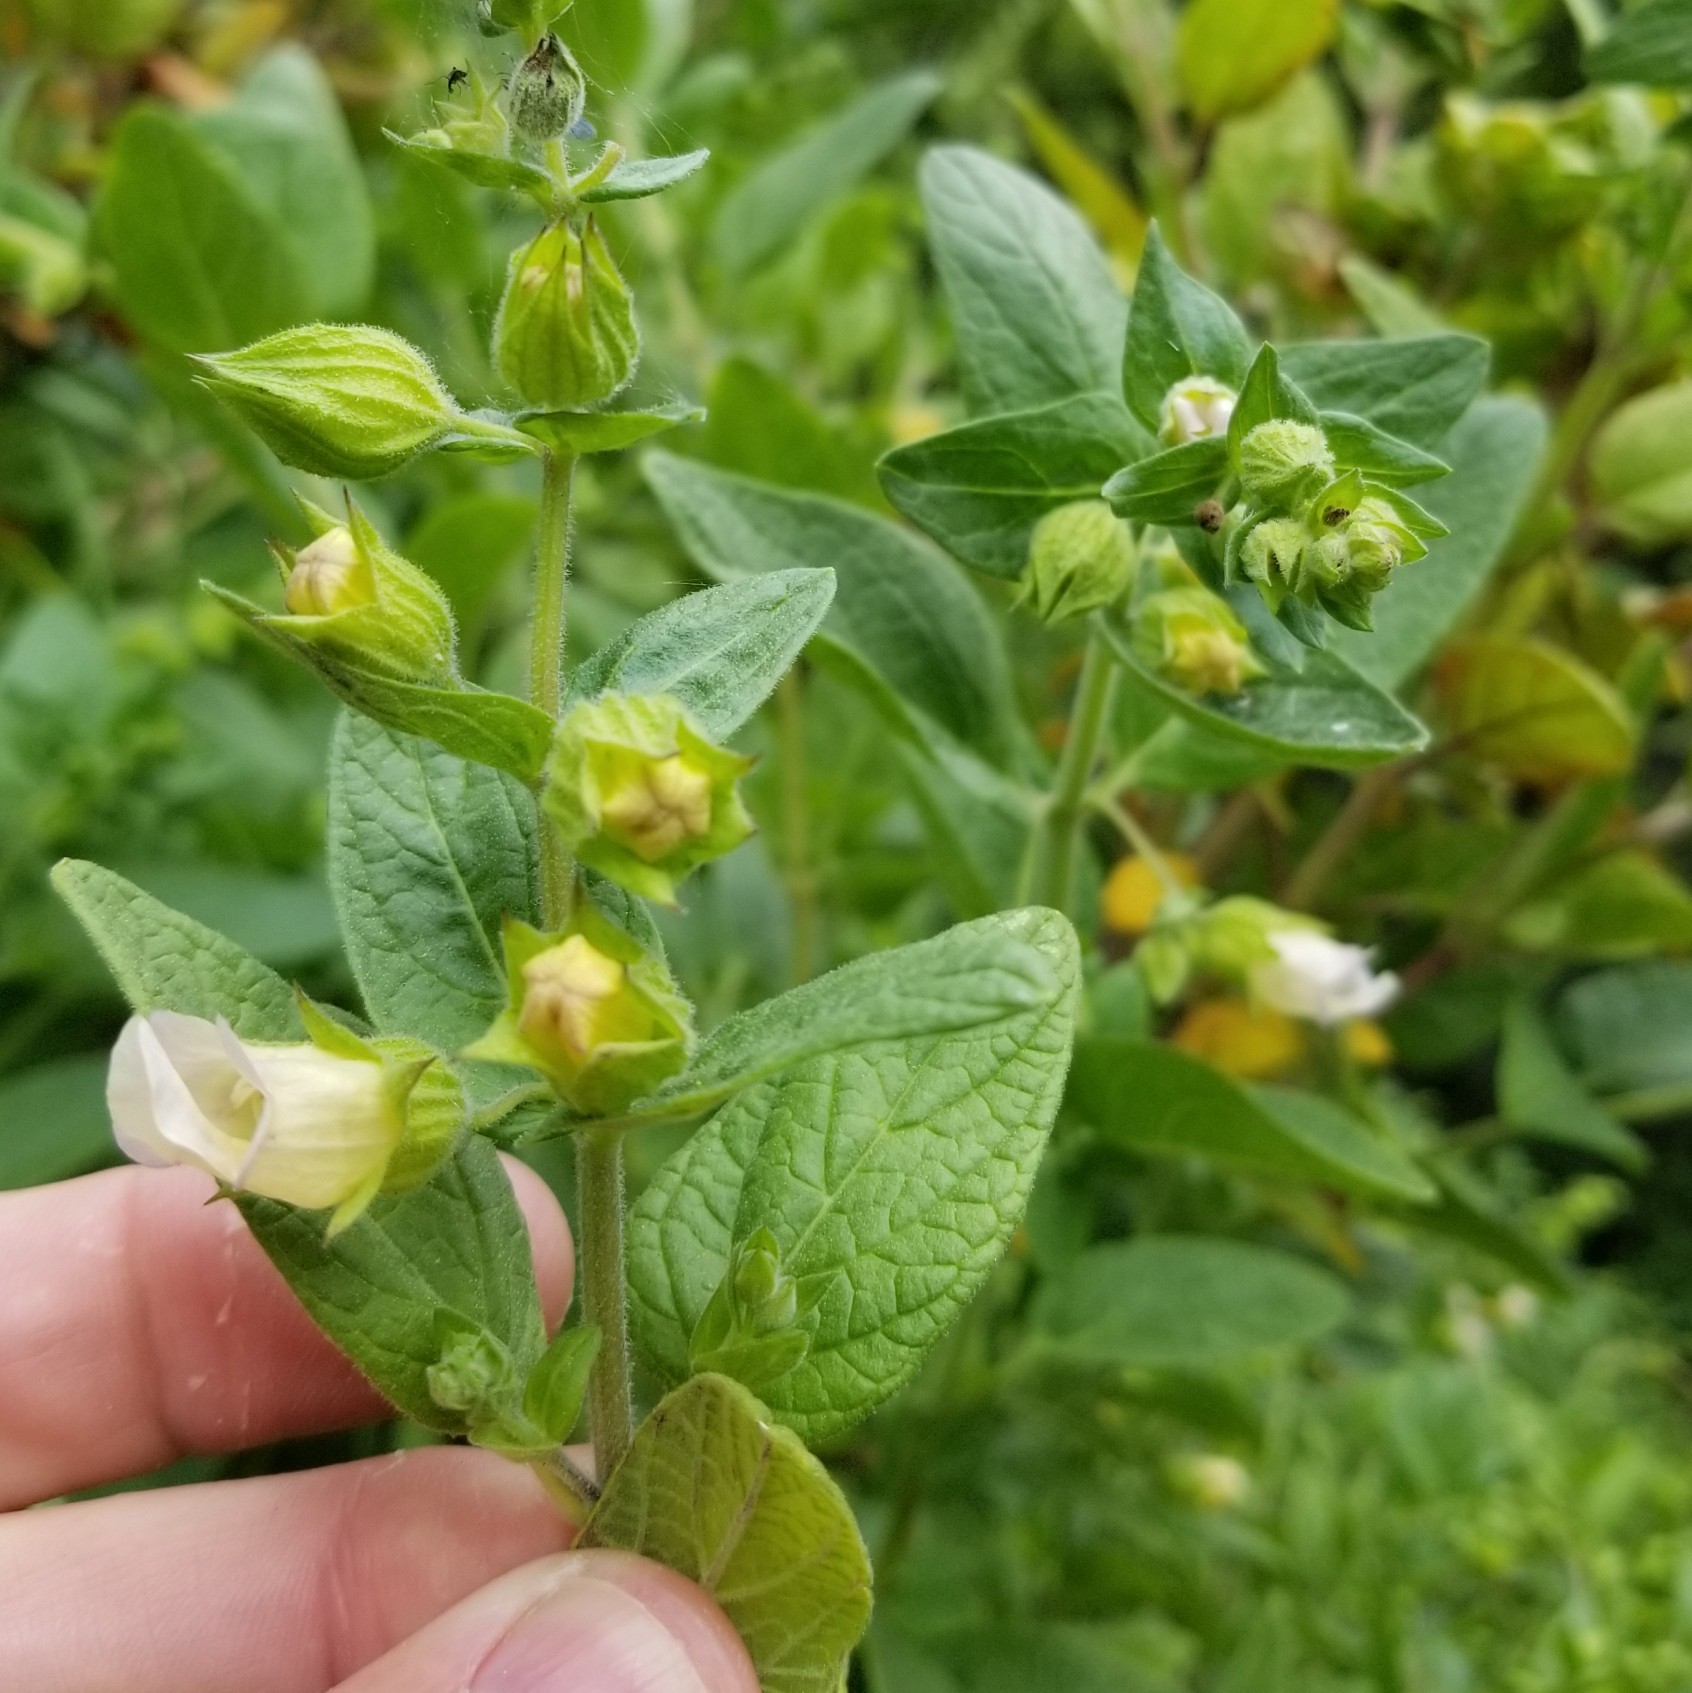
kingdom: Plantae
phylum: Tracheophyta
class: Magnoliopsida
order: Lamiales
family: Lamiaceae
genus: Lepechinia
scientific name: Lepechinia calycina
